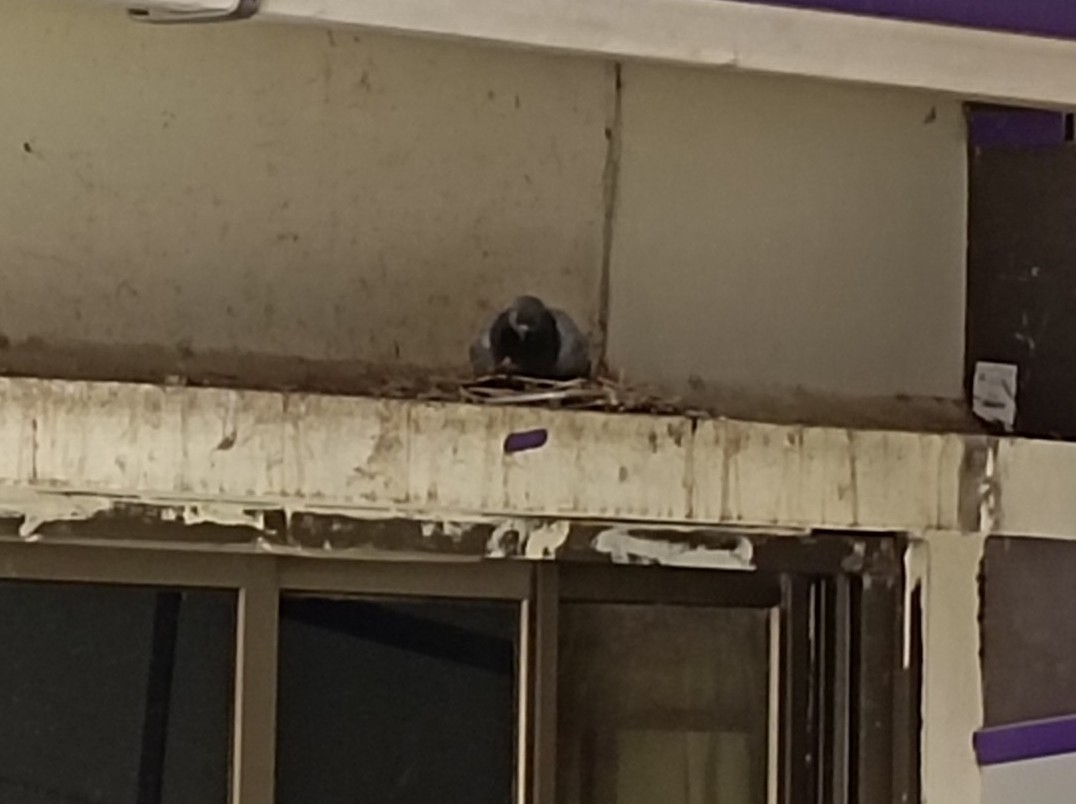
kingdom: Animalia
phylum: Chordata
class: Aves
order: Columbiformes
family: Columbidae
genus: Columba
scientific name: Columba livia
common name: Rock pigeon
